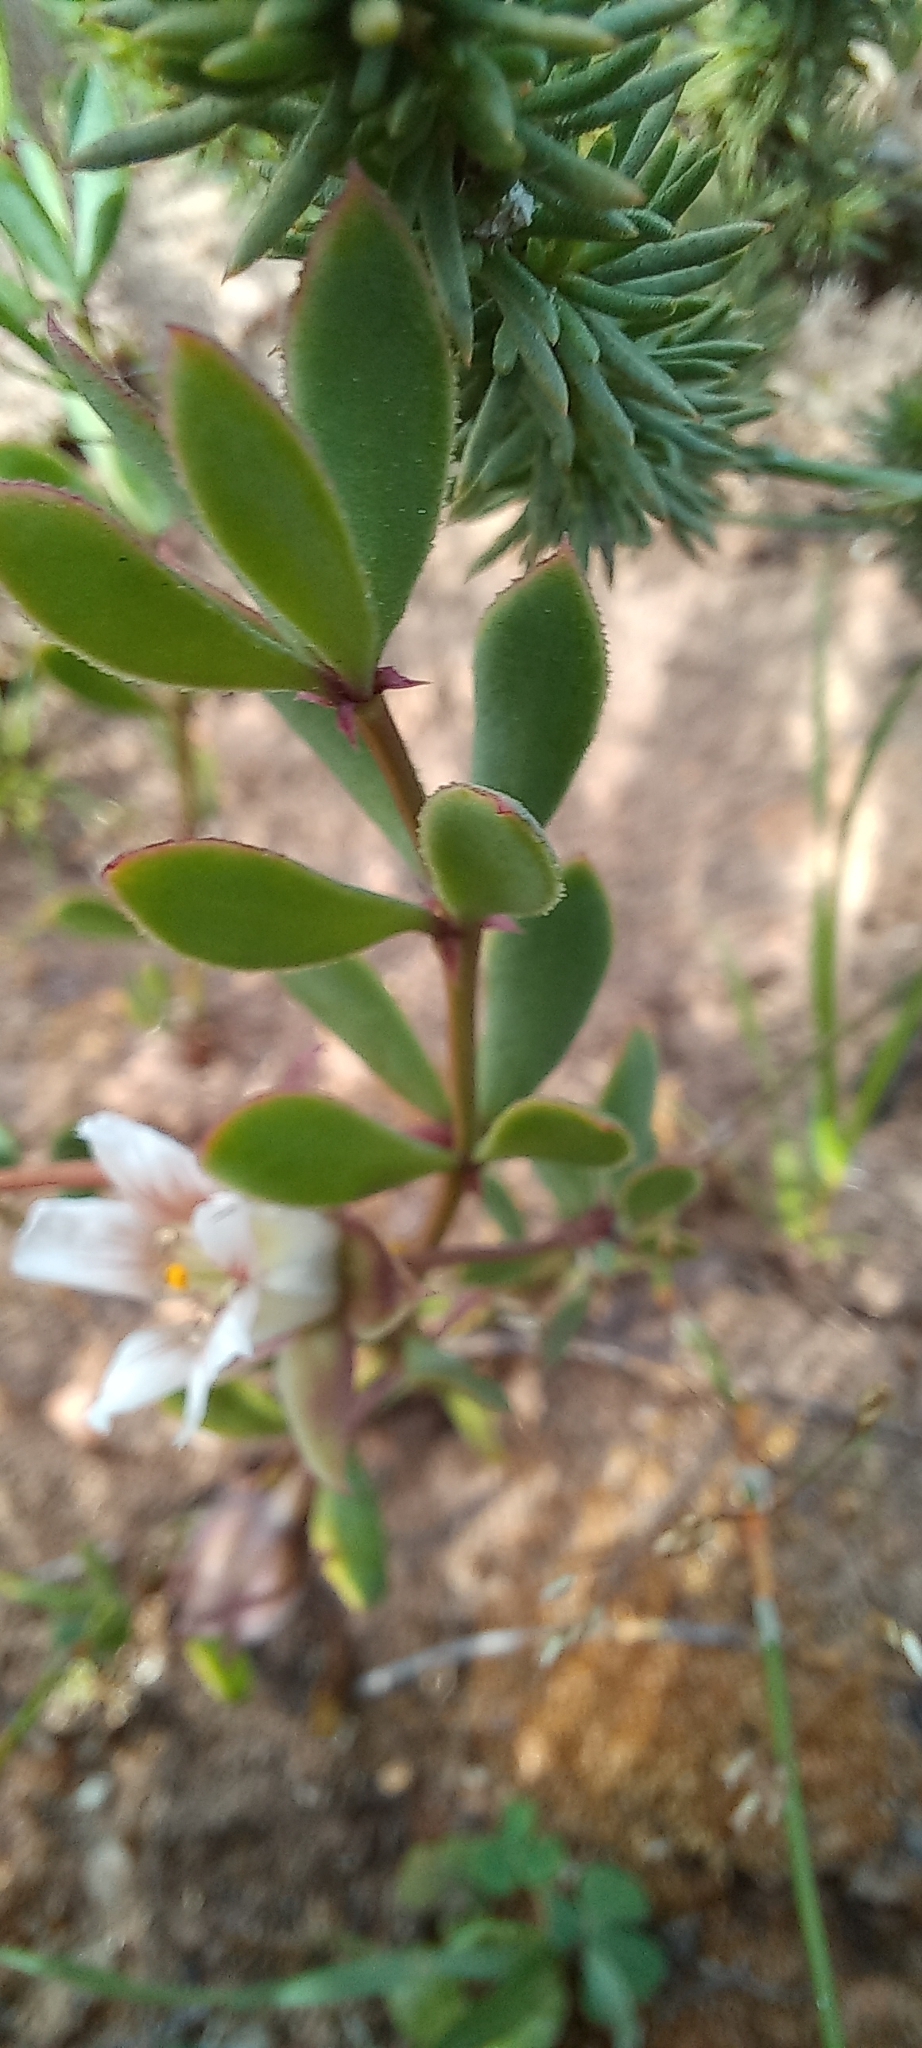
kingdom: Plantae
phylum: Tracheophyta
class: Magnoliopsida
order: Zygophyllales
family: Zygophyllaceae
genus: Roepera
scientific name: Roepera sessilifolia
